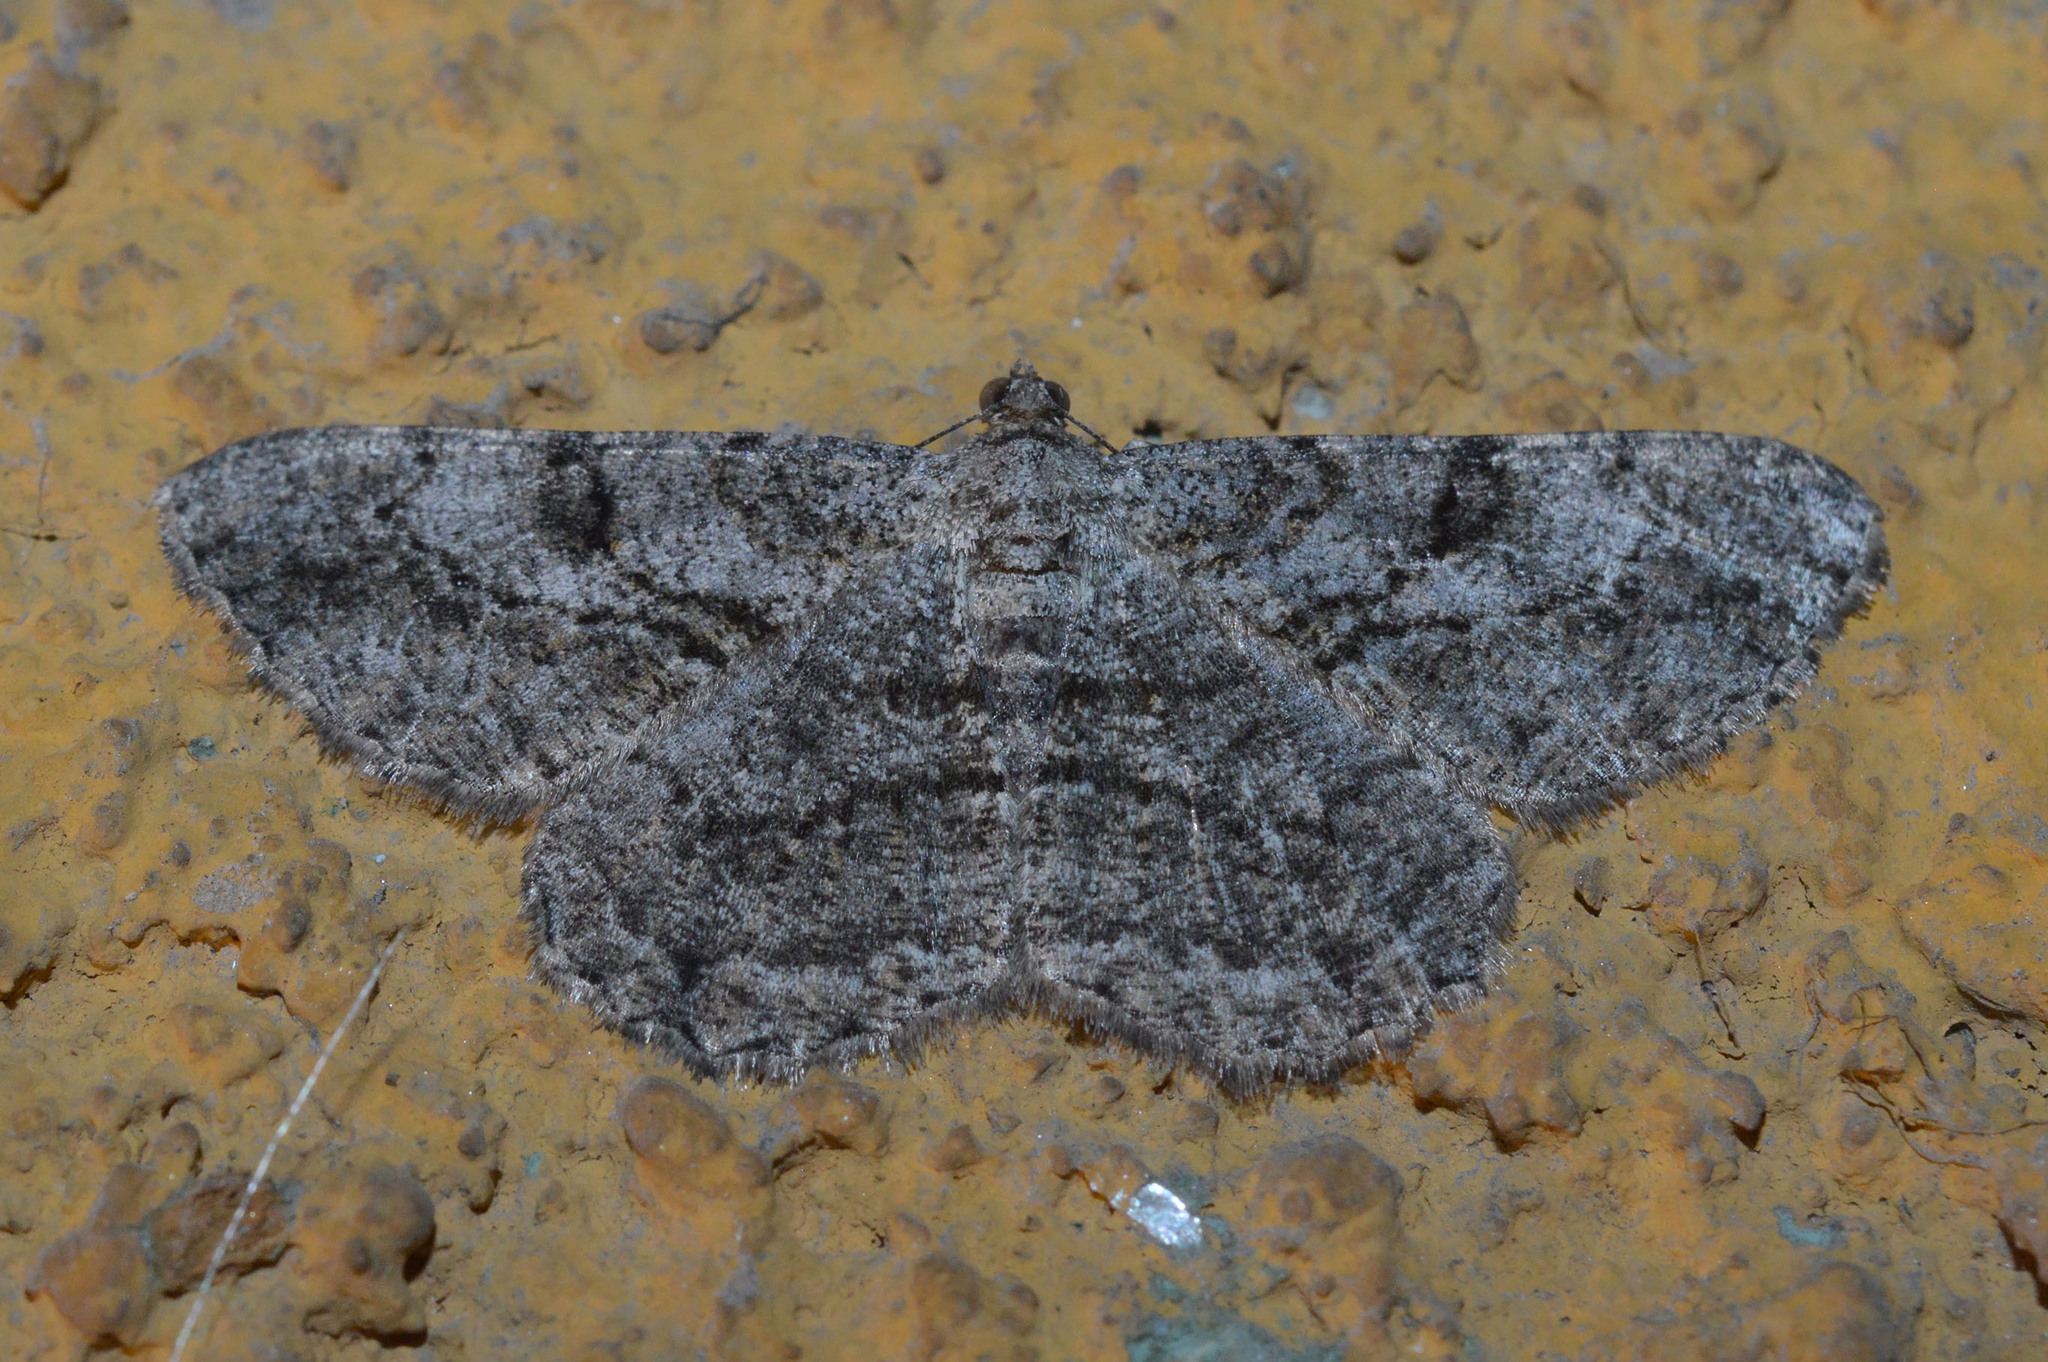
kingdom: Animalia
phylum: Arthropoda
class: Insecta
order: Lepidoptera
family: Geometridae
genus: Peribatodes
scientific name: Peribatodes rhomboidaria
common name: Willow beauty
